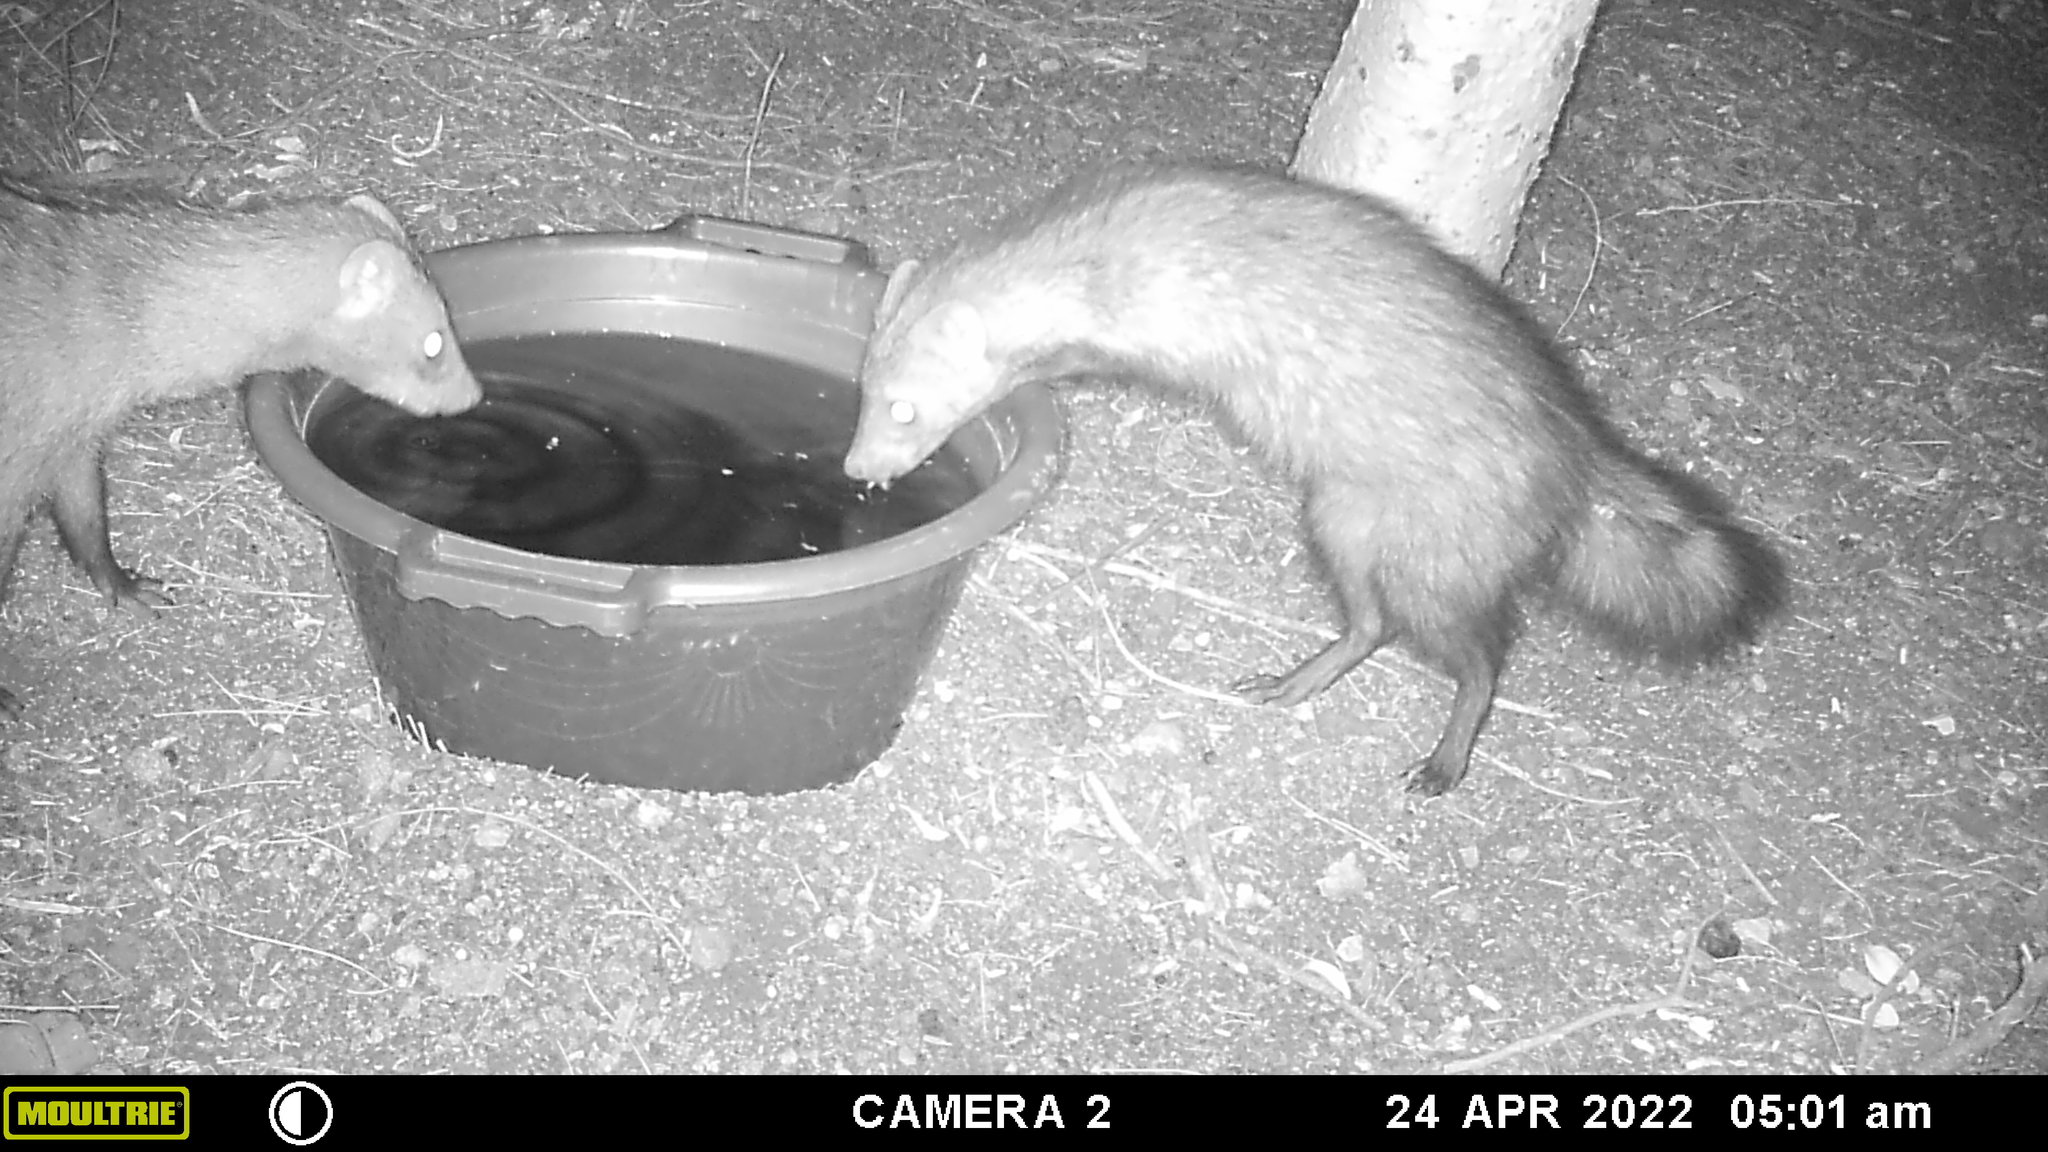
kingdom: Animalia
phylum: Chordata
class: Mammalia
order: Carnivora
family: Herpestidae
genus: Atilax
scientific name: Atilax paludinosus
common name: Marsh mongoose
